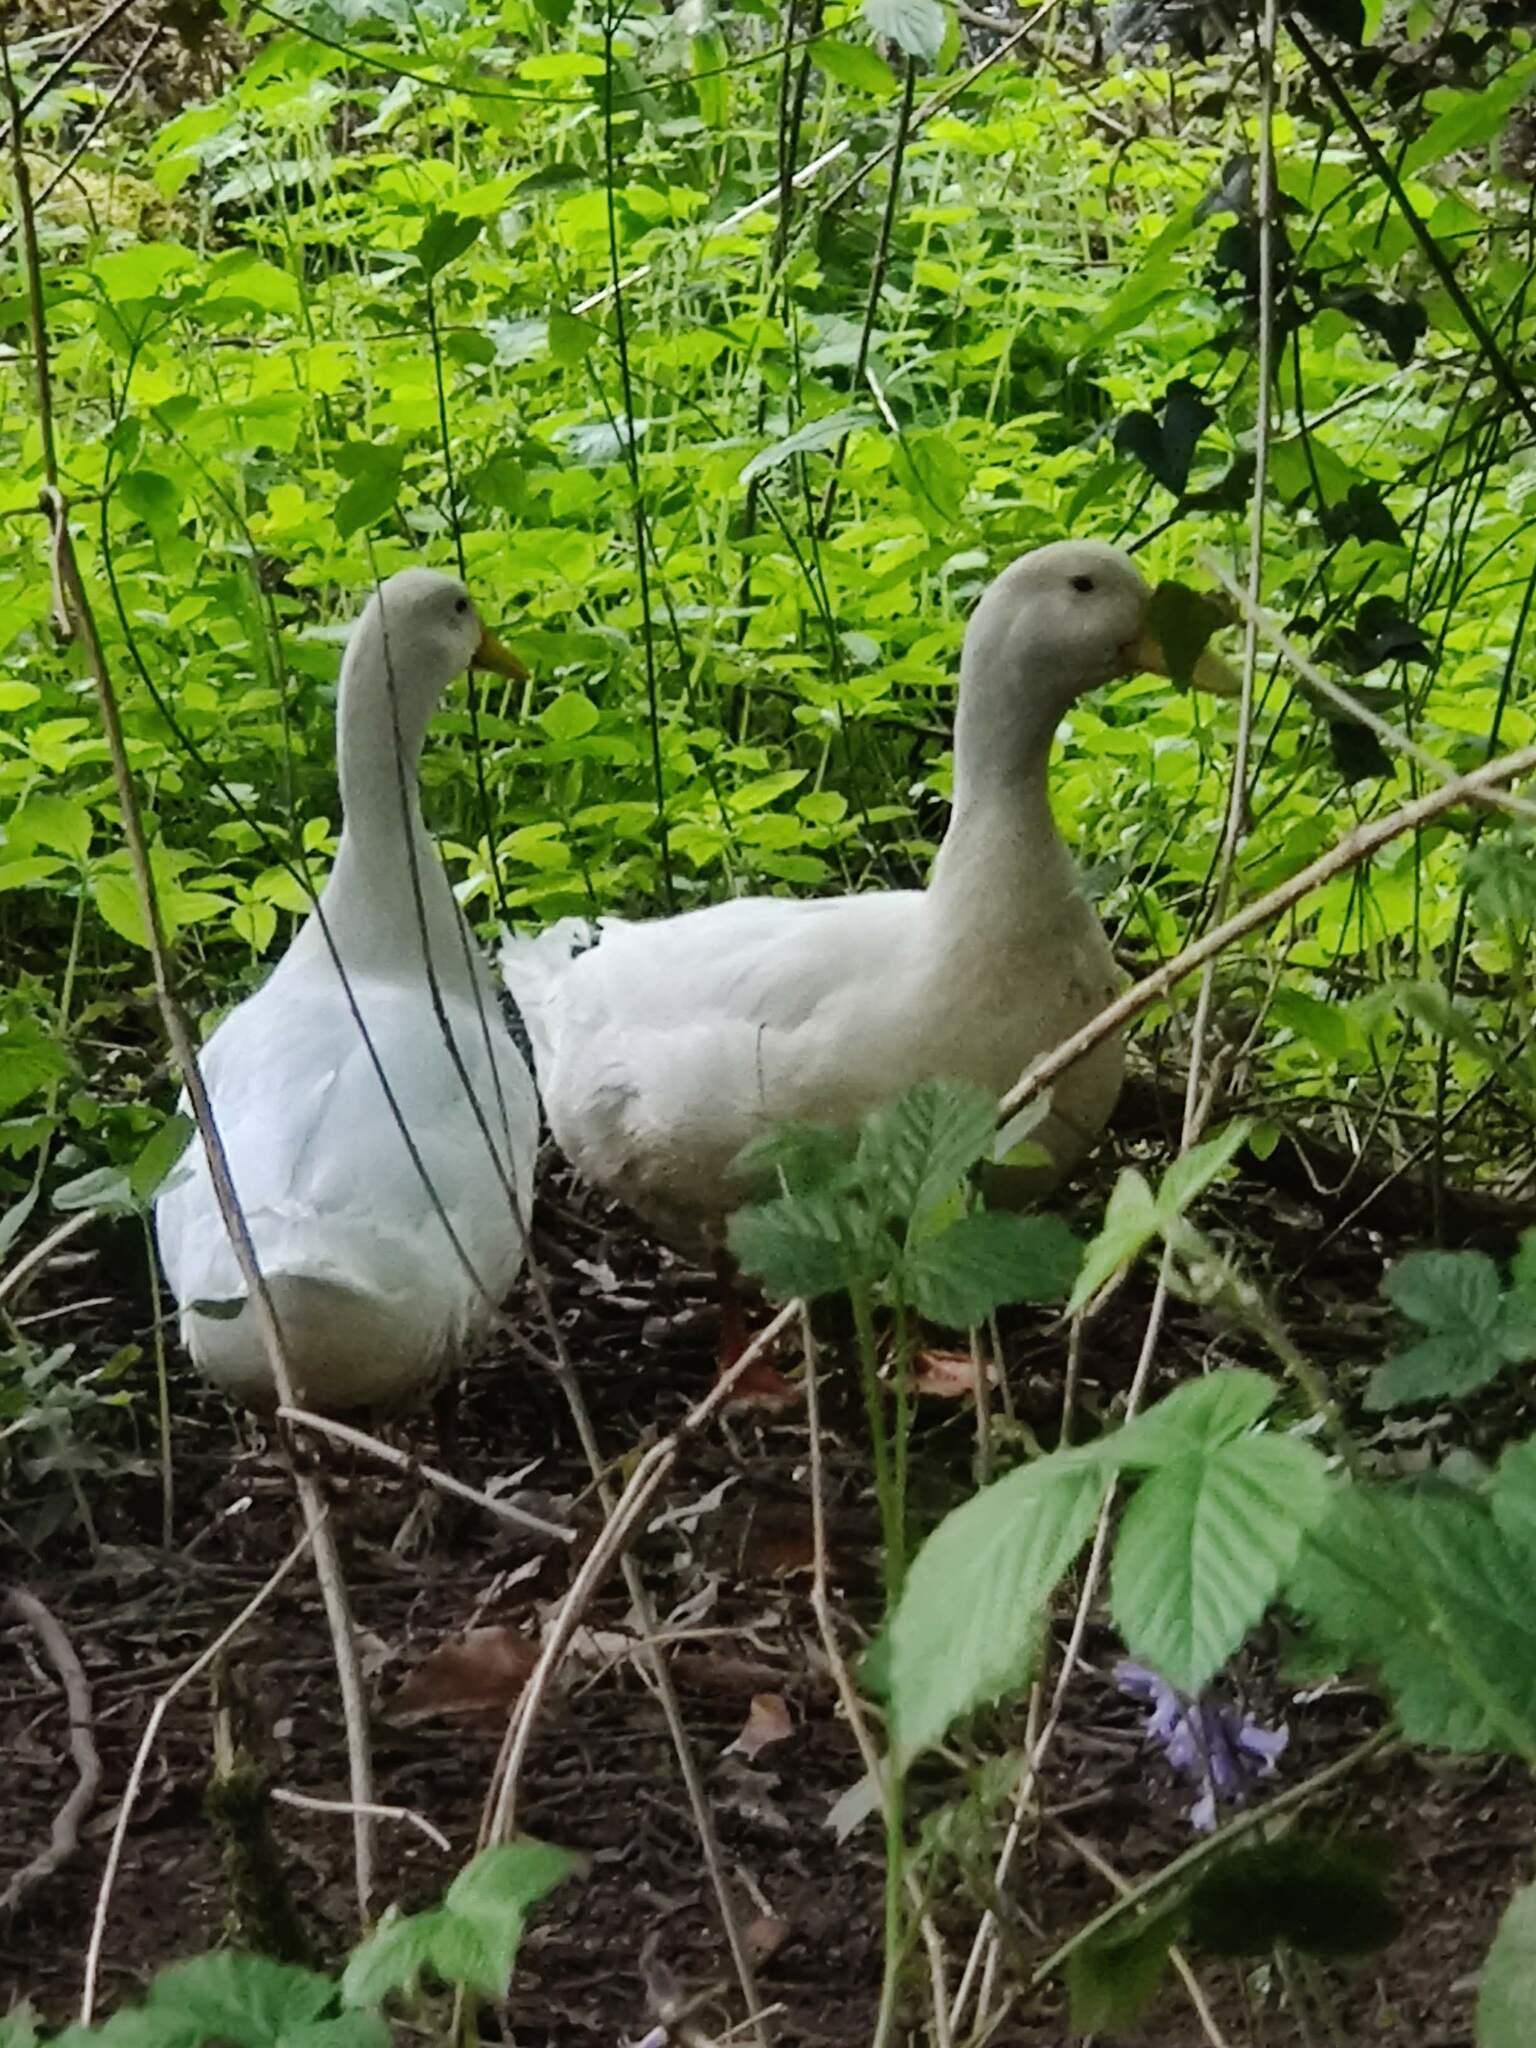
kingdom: Animalia
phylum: Chordata
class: Aves
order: Anseriformes
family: Anatidae
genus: Anas
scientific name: Anas platyrhynchos
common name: Mallard
